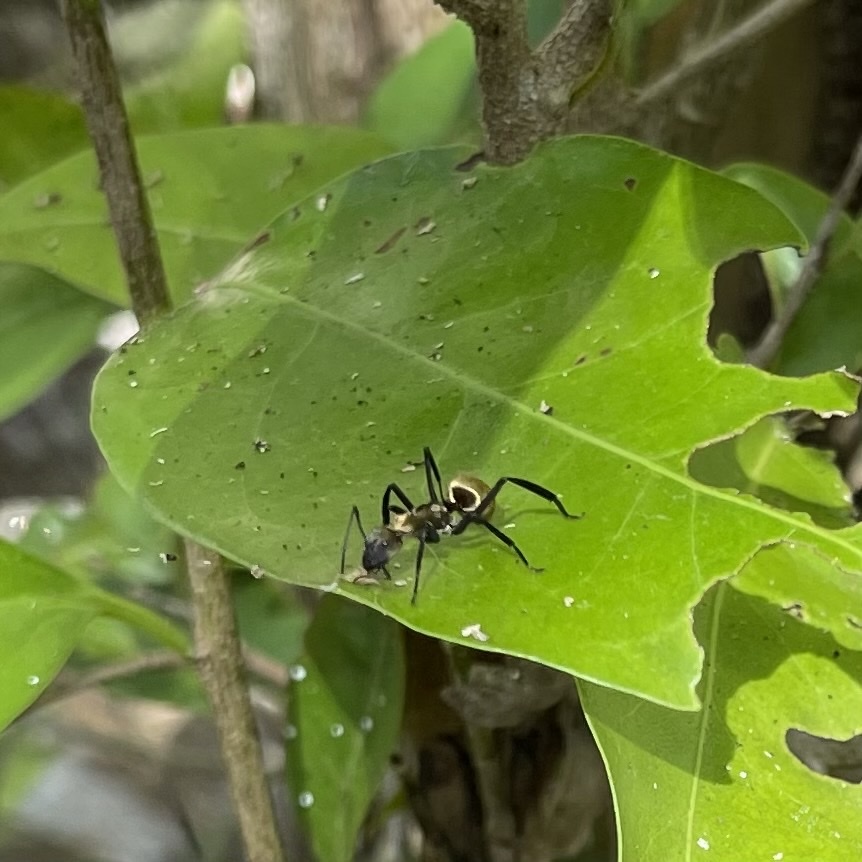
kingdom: Animalia
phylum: Arthropoda
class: Insecta
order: Hymenoptera
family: Formicidae
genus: Camponotus
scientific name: Camponotus sericeiventris
